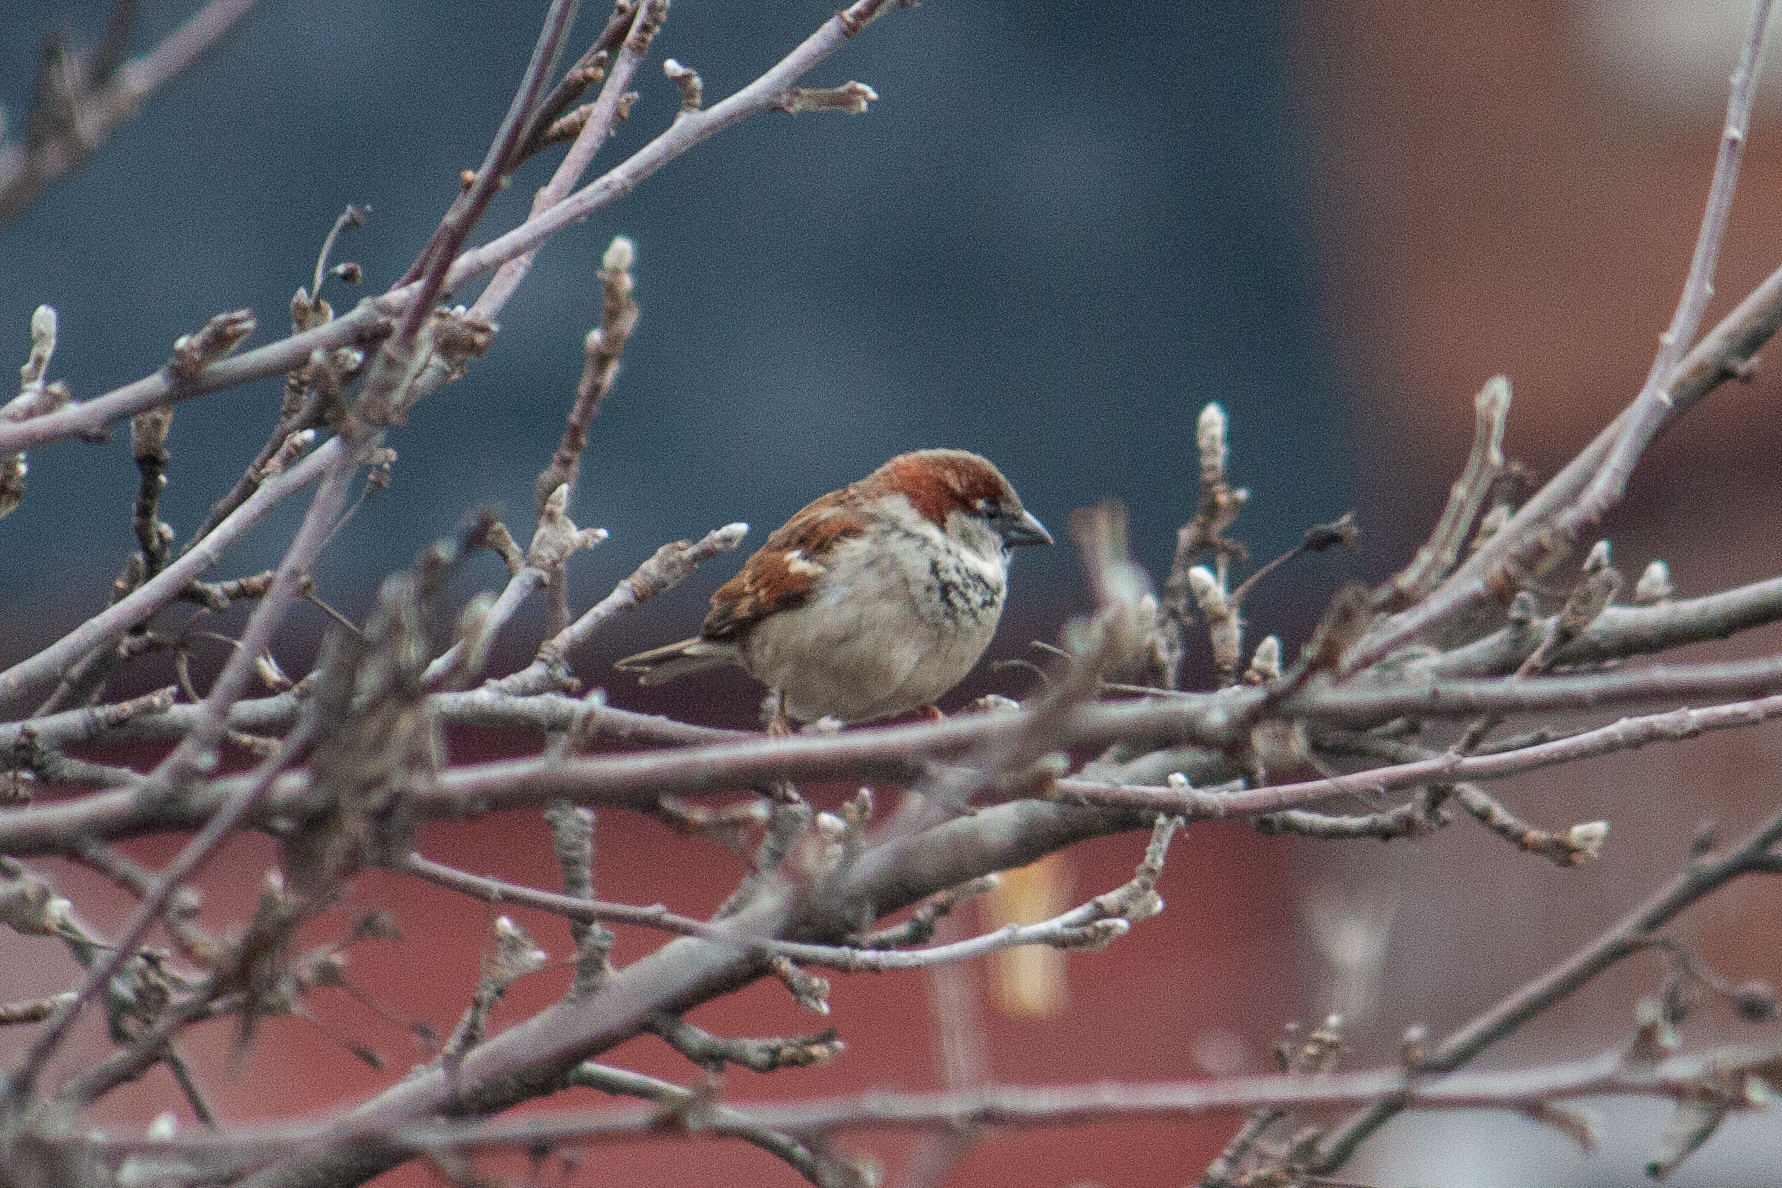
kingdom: Animalia
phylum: Chordata
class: Aves
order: Passeriformes
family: Passeridae
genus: Passer
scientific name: Passer domesticus
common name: House sparrow
